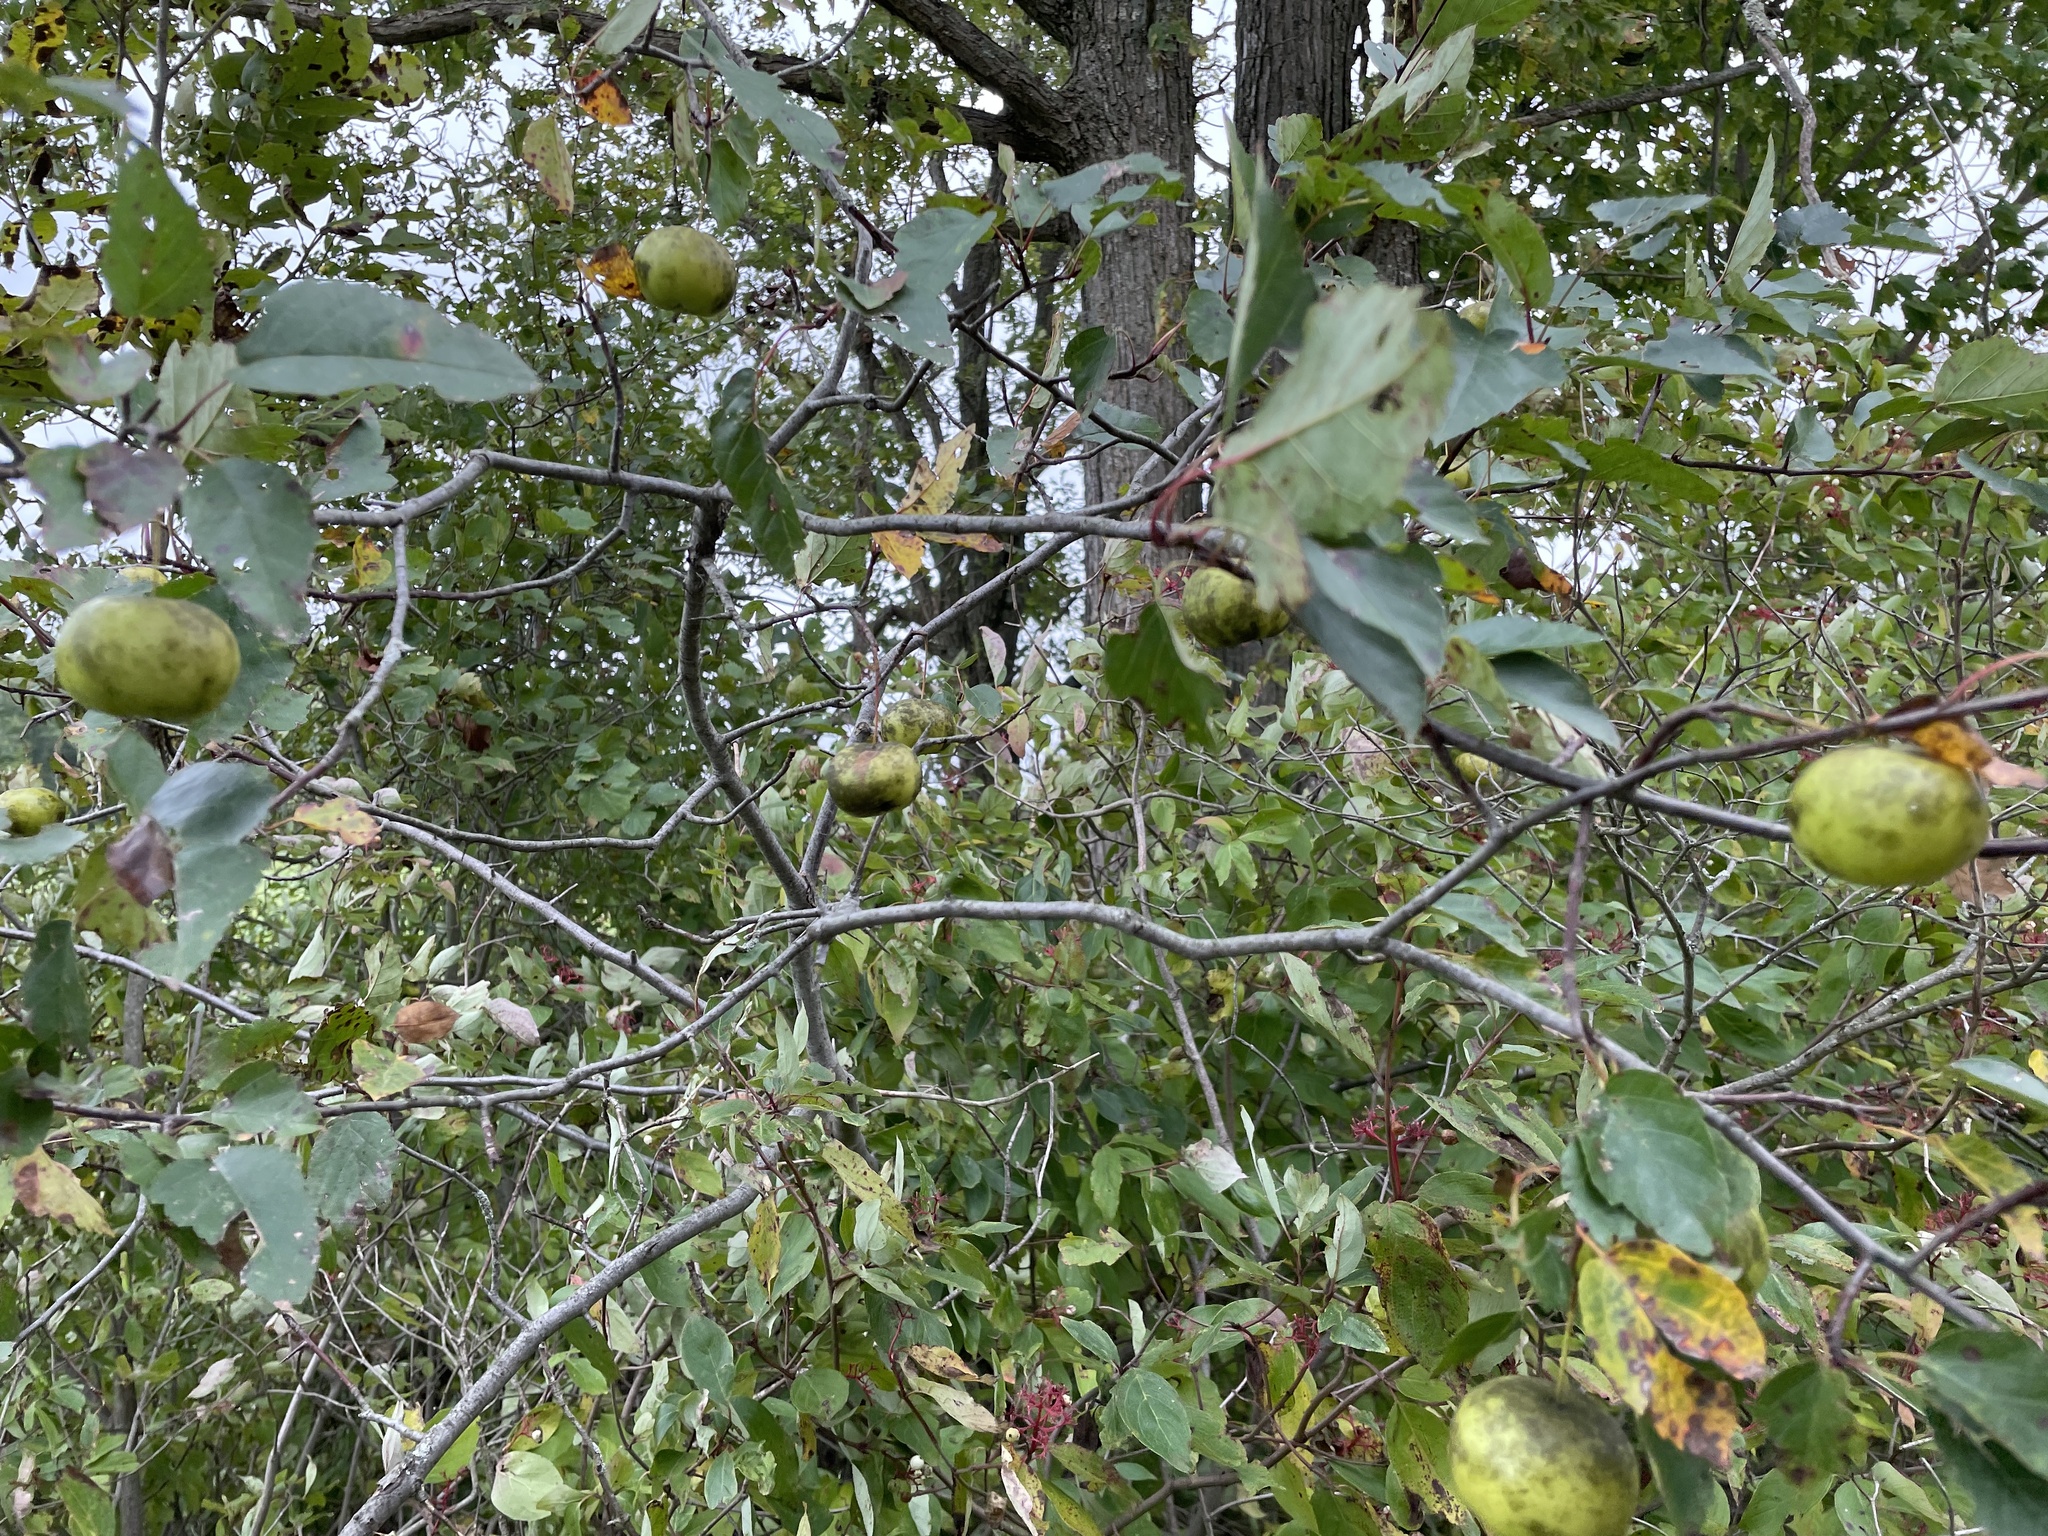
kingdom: Plantae
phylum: Tracheophyta
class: Magnoliopsida
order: Rosales
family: Rosaceae
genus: Malus
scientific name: Malus coronaria
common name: Sweet crab apple
